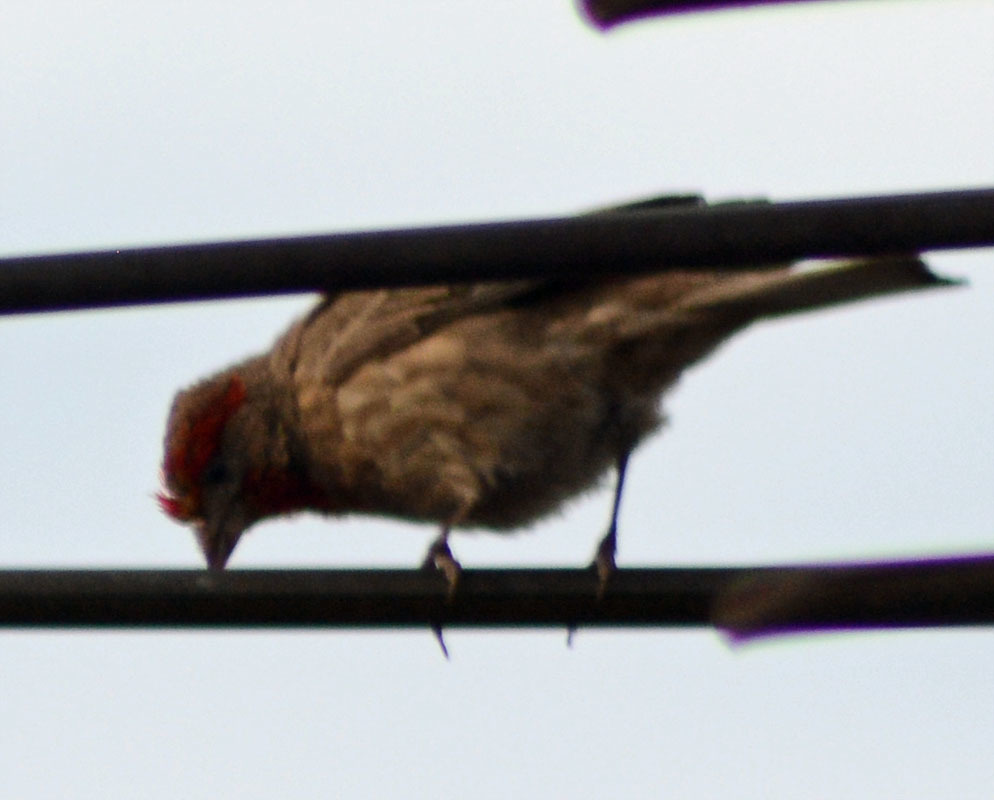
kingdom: Animalia
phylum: Chordata
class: Aves
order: Passeriformes
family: Fringillidae
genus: Haemorhous
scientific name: Haemorhous mexicanus
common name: House finch
